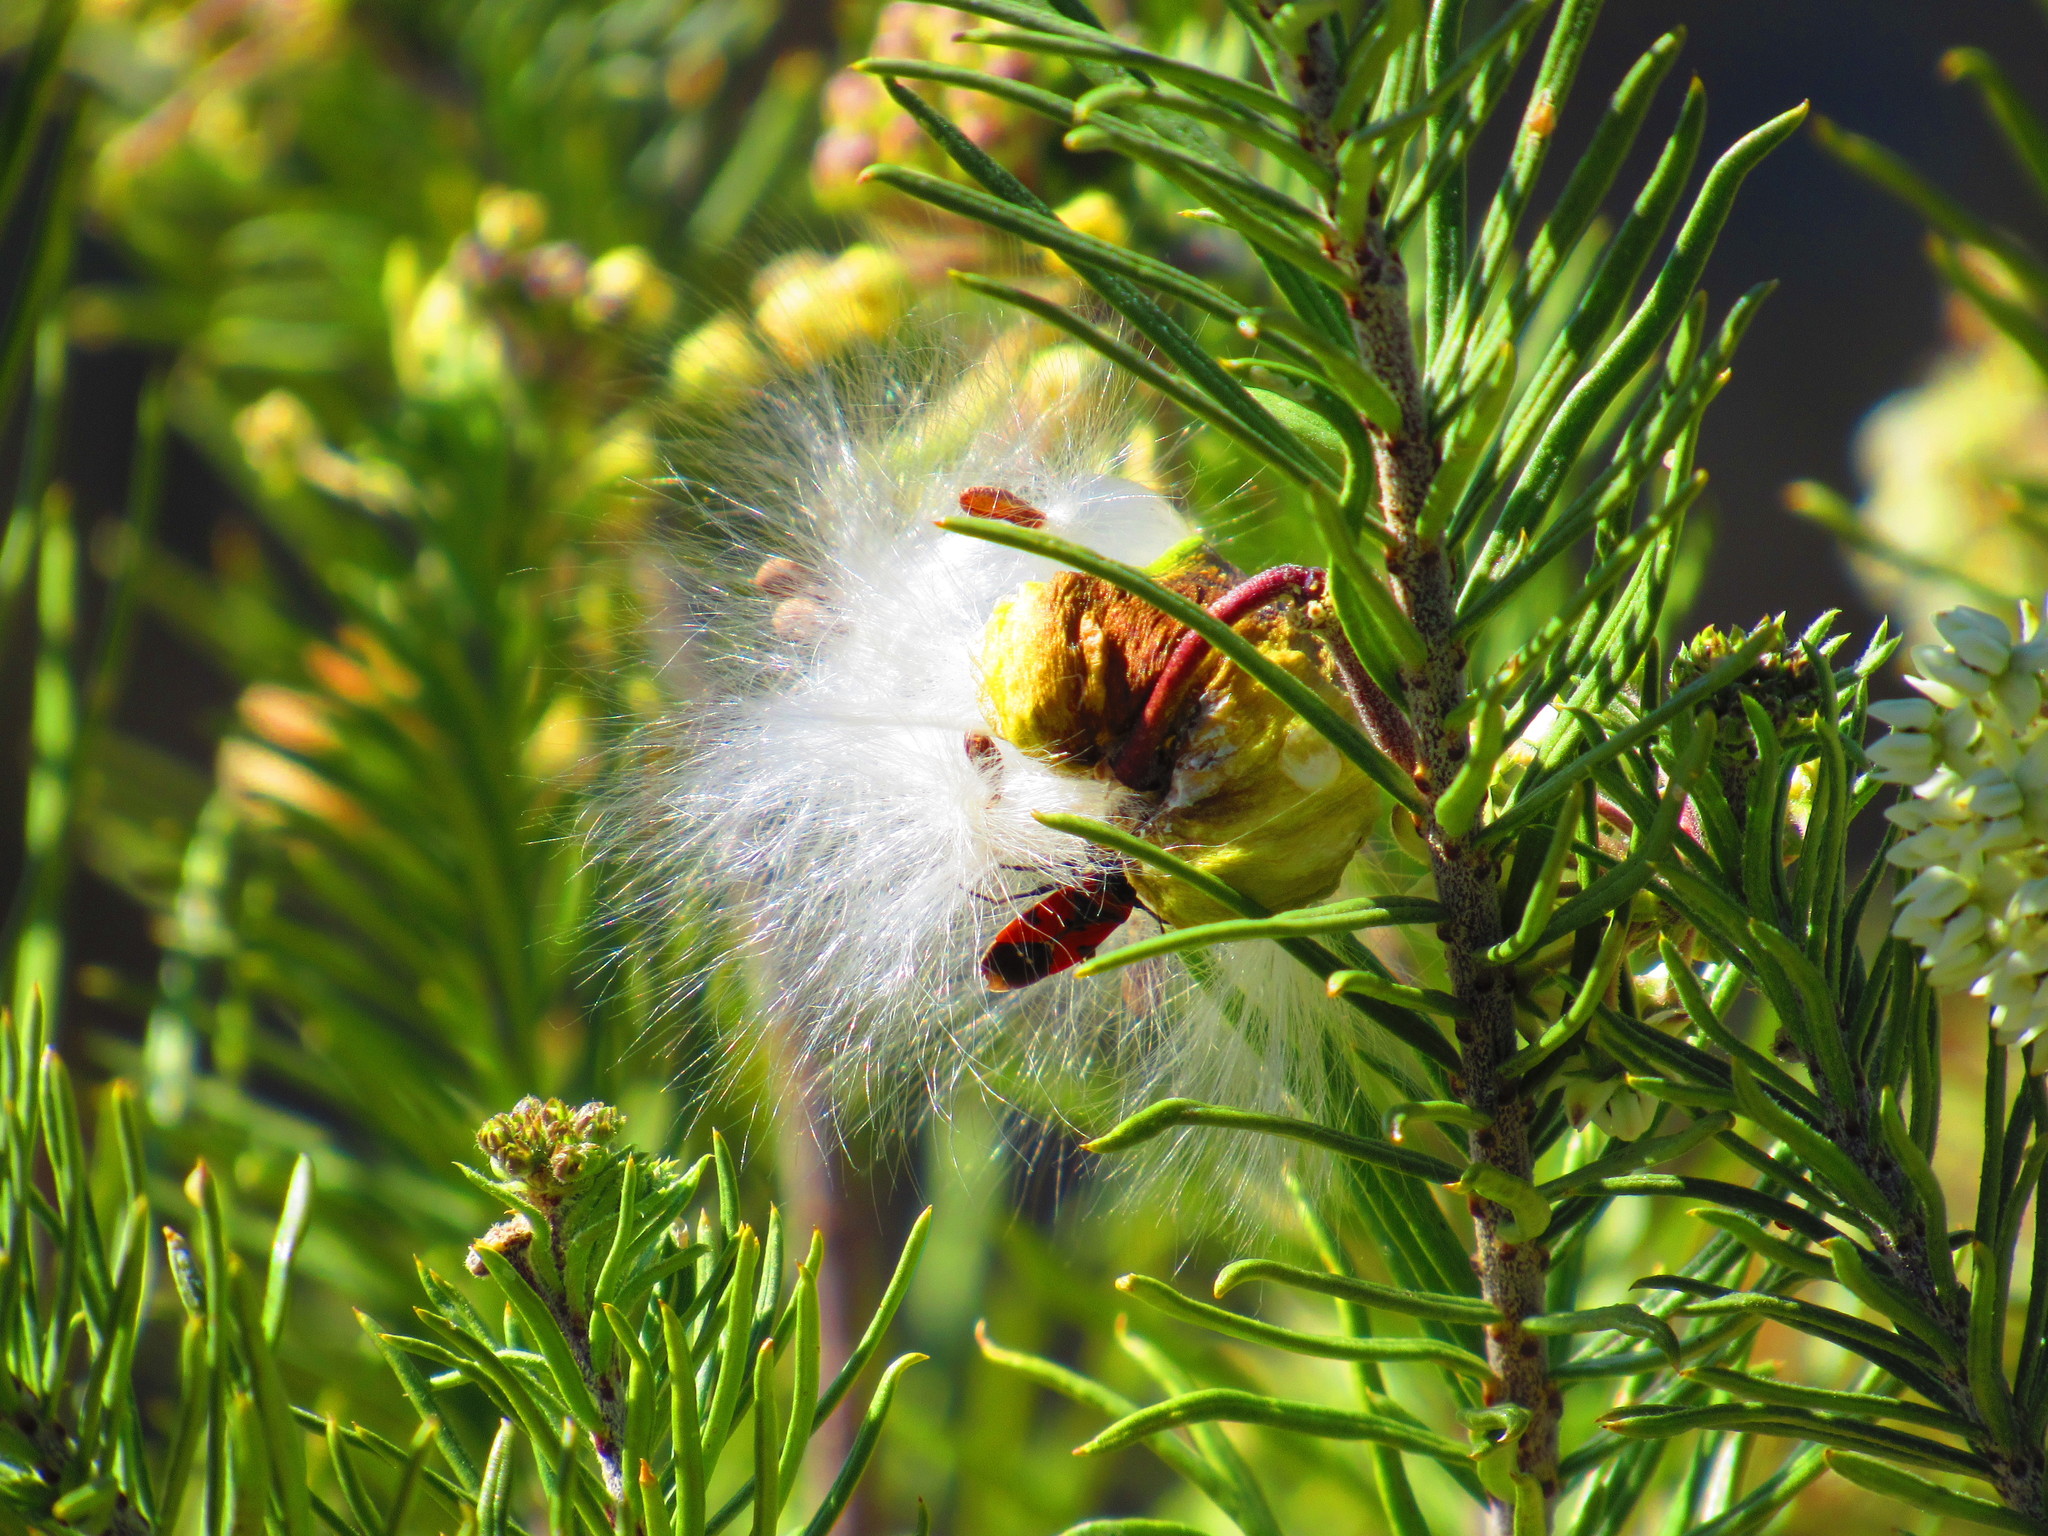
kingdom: Plantae
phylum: Tracheophyta
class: Magnoliopsida
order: Gentianales
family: Apocynaceae
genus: Asclepias
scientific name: Asclepias linaria
